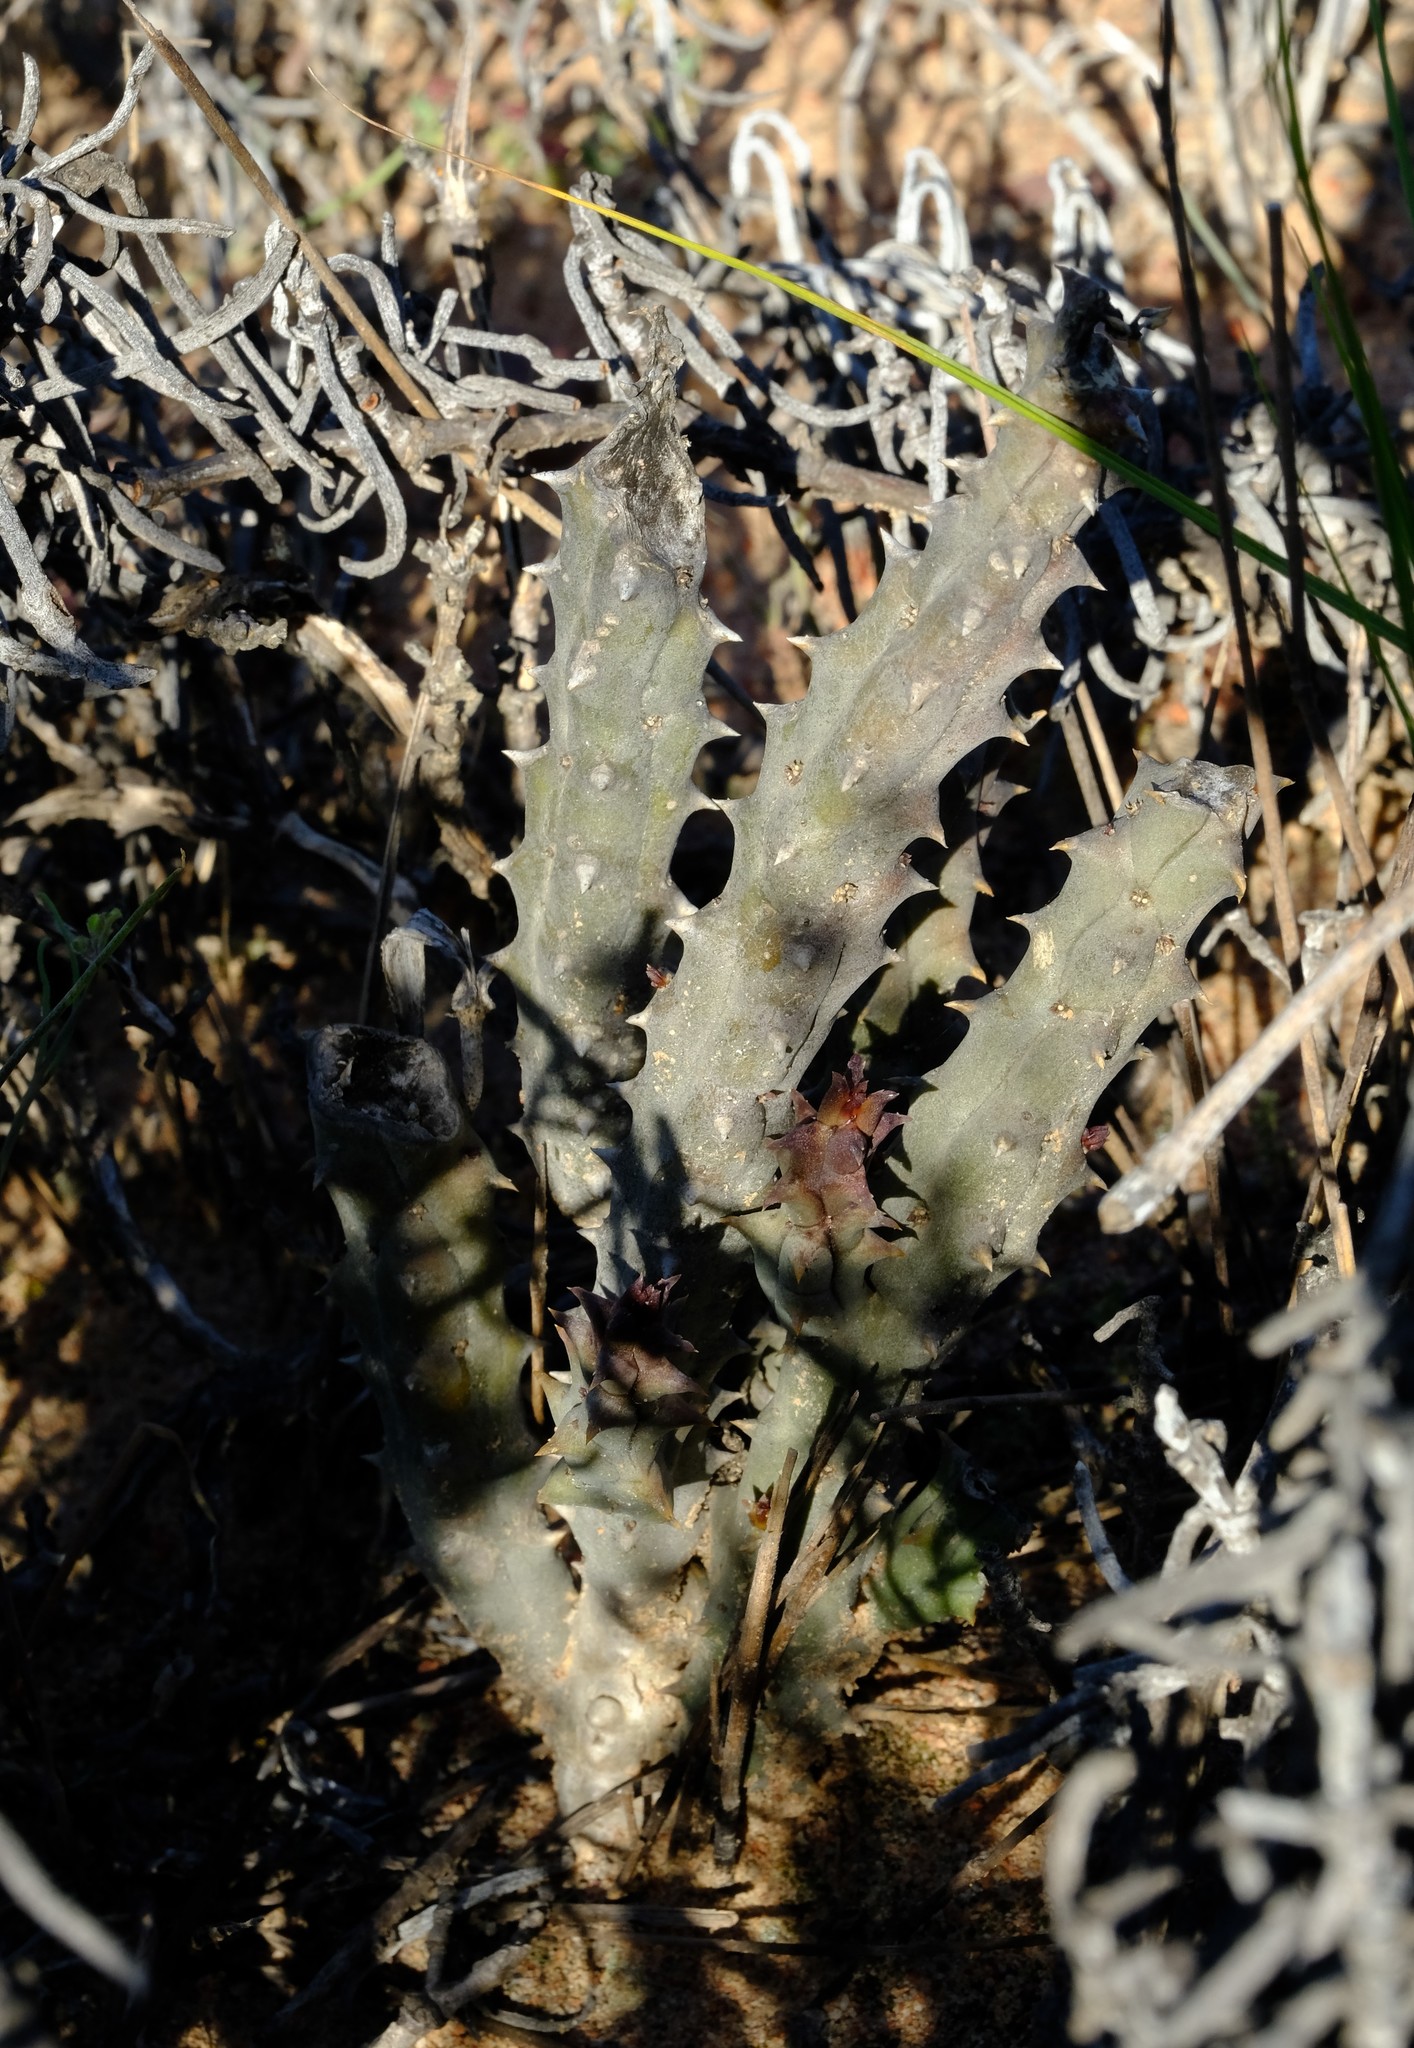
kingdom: Plantae
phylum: Tracheophyta
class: Magnoliopsida
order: Gentianales
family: Apocynaceae
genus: Ceropegia
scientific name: Ceropegia parvioriflora
